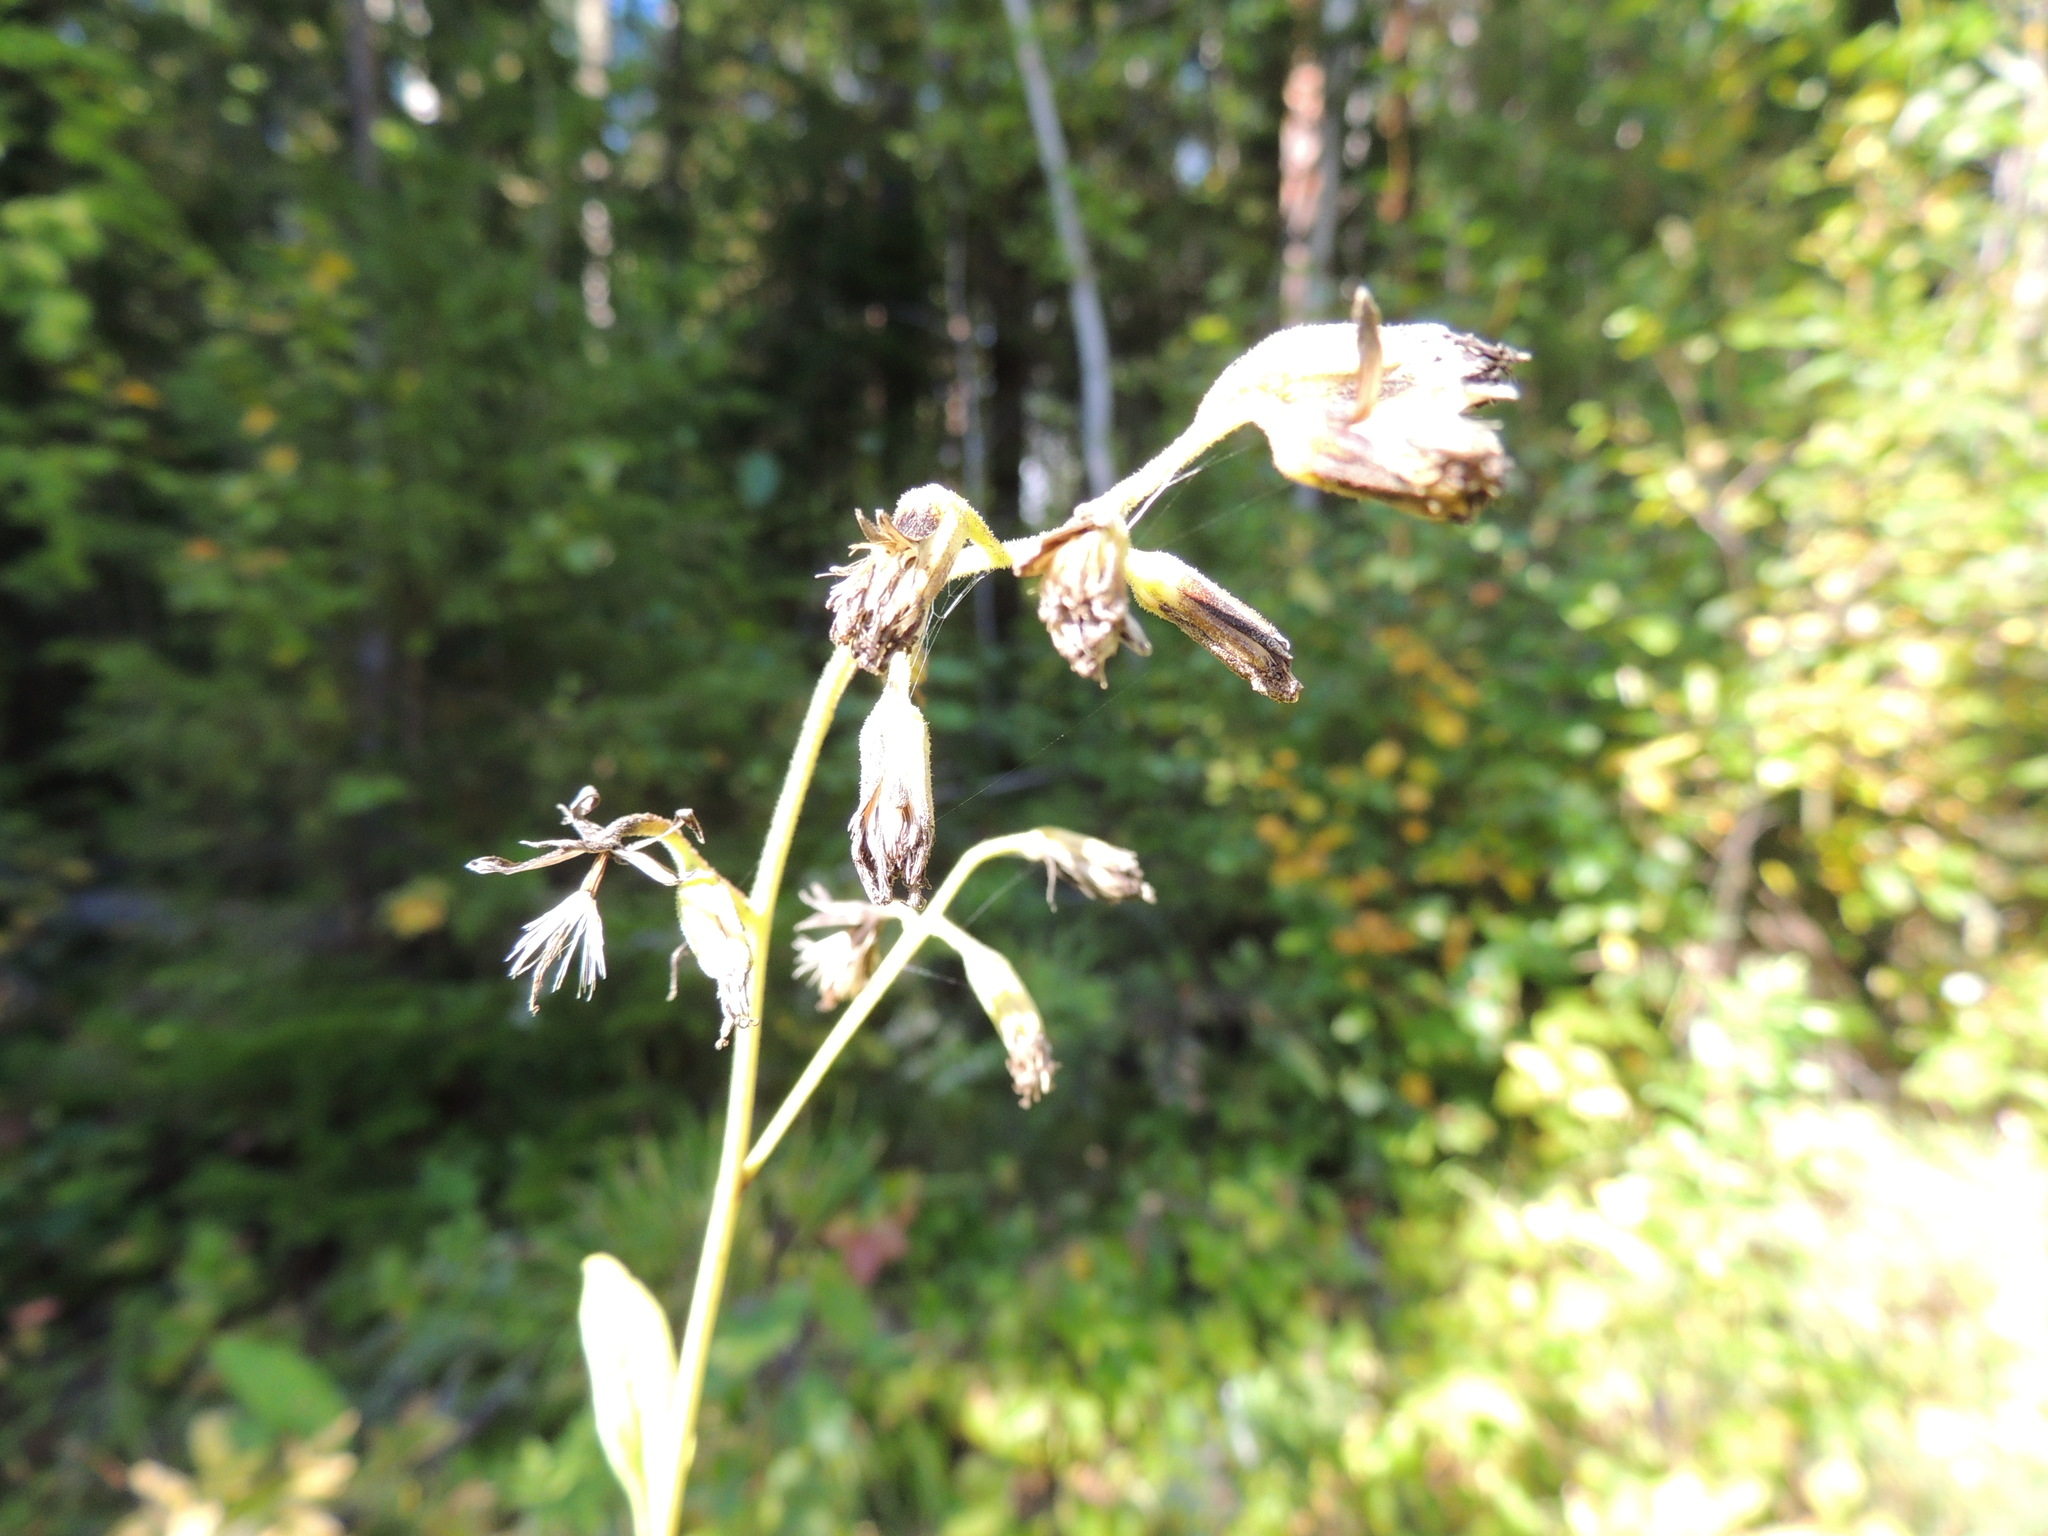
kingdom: Plantae
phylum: Tracheophyta
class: Magnoliopsida
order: Asterales
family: Asteraceae
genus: Parasenecio
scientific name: Parasenecio hastatus
